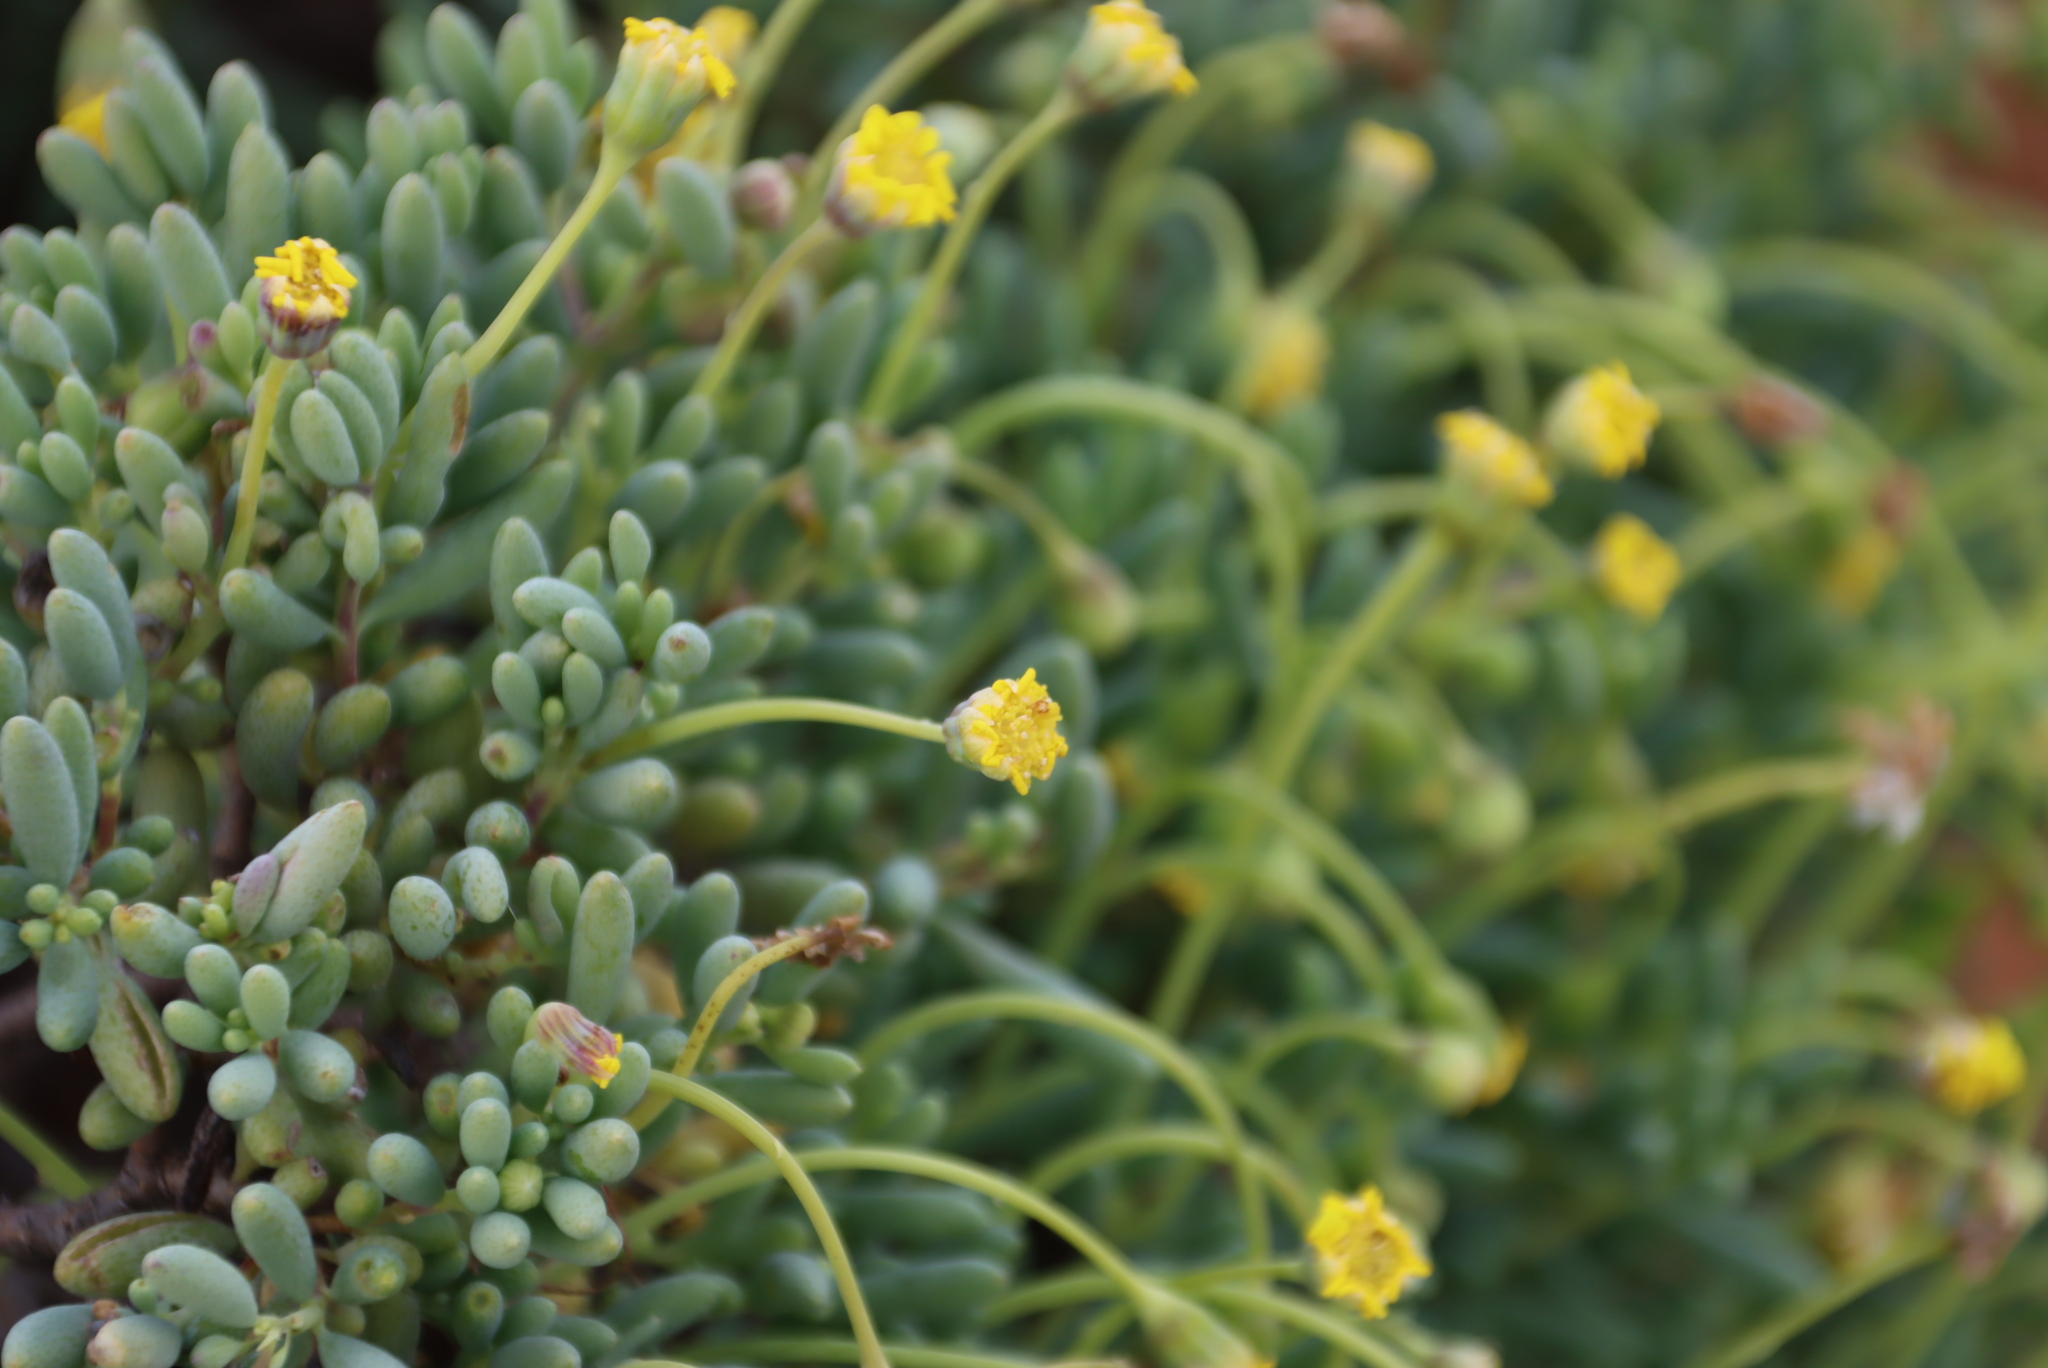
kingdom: Plantae
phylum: Tracheophyta
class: Magnoliopsida
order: Asterales
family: Asteraceae
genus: Crassothonna
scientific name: Crassothonna sedifolia
